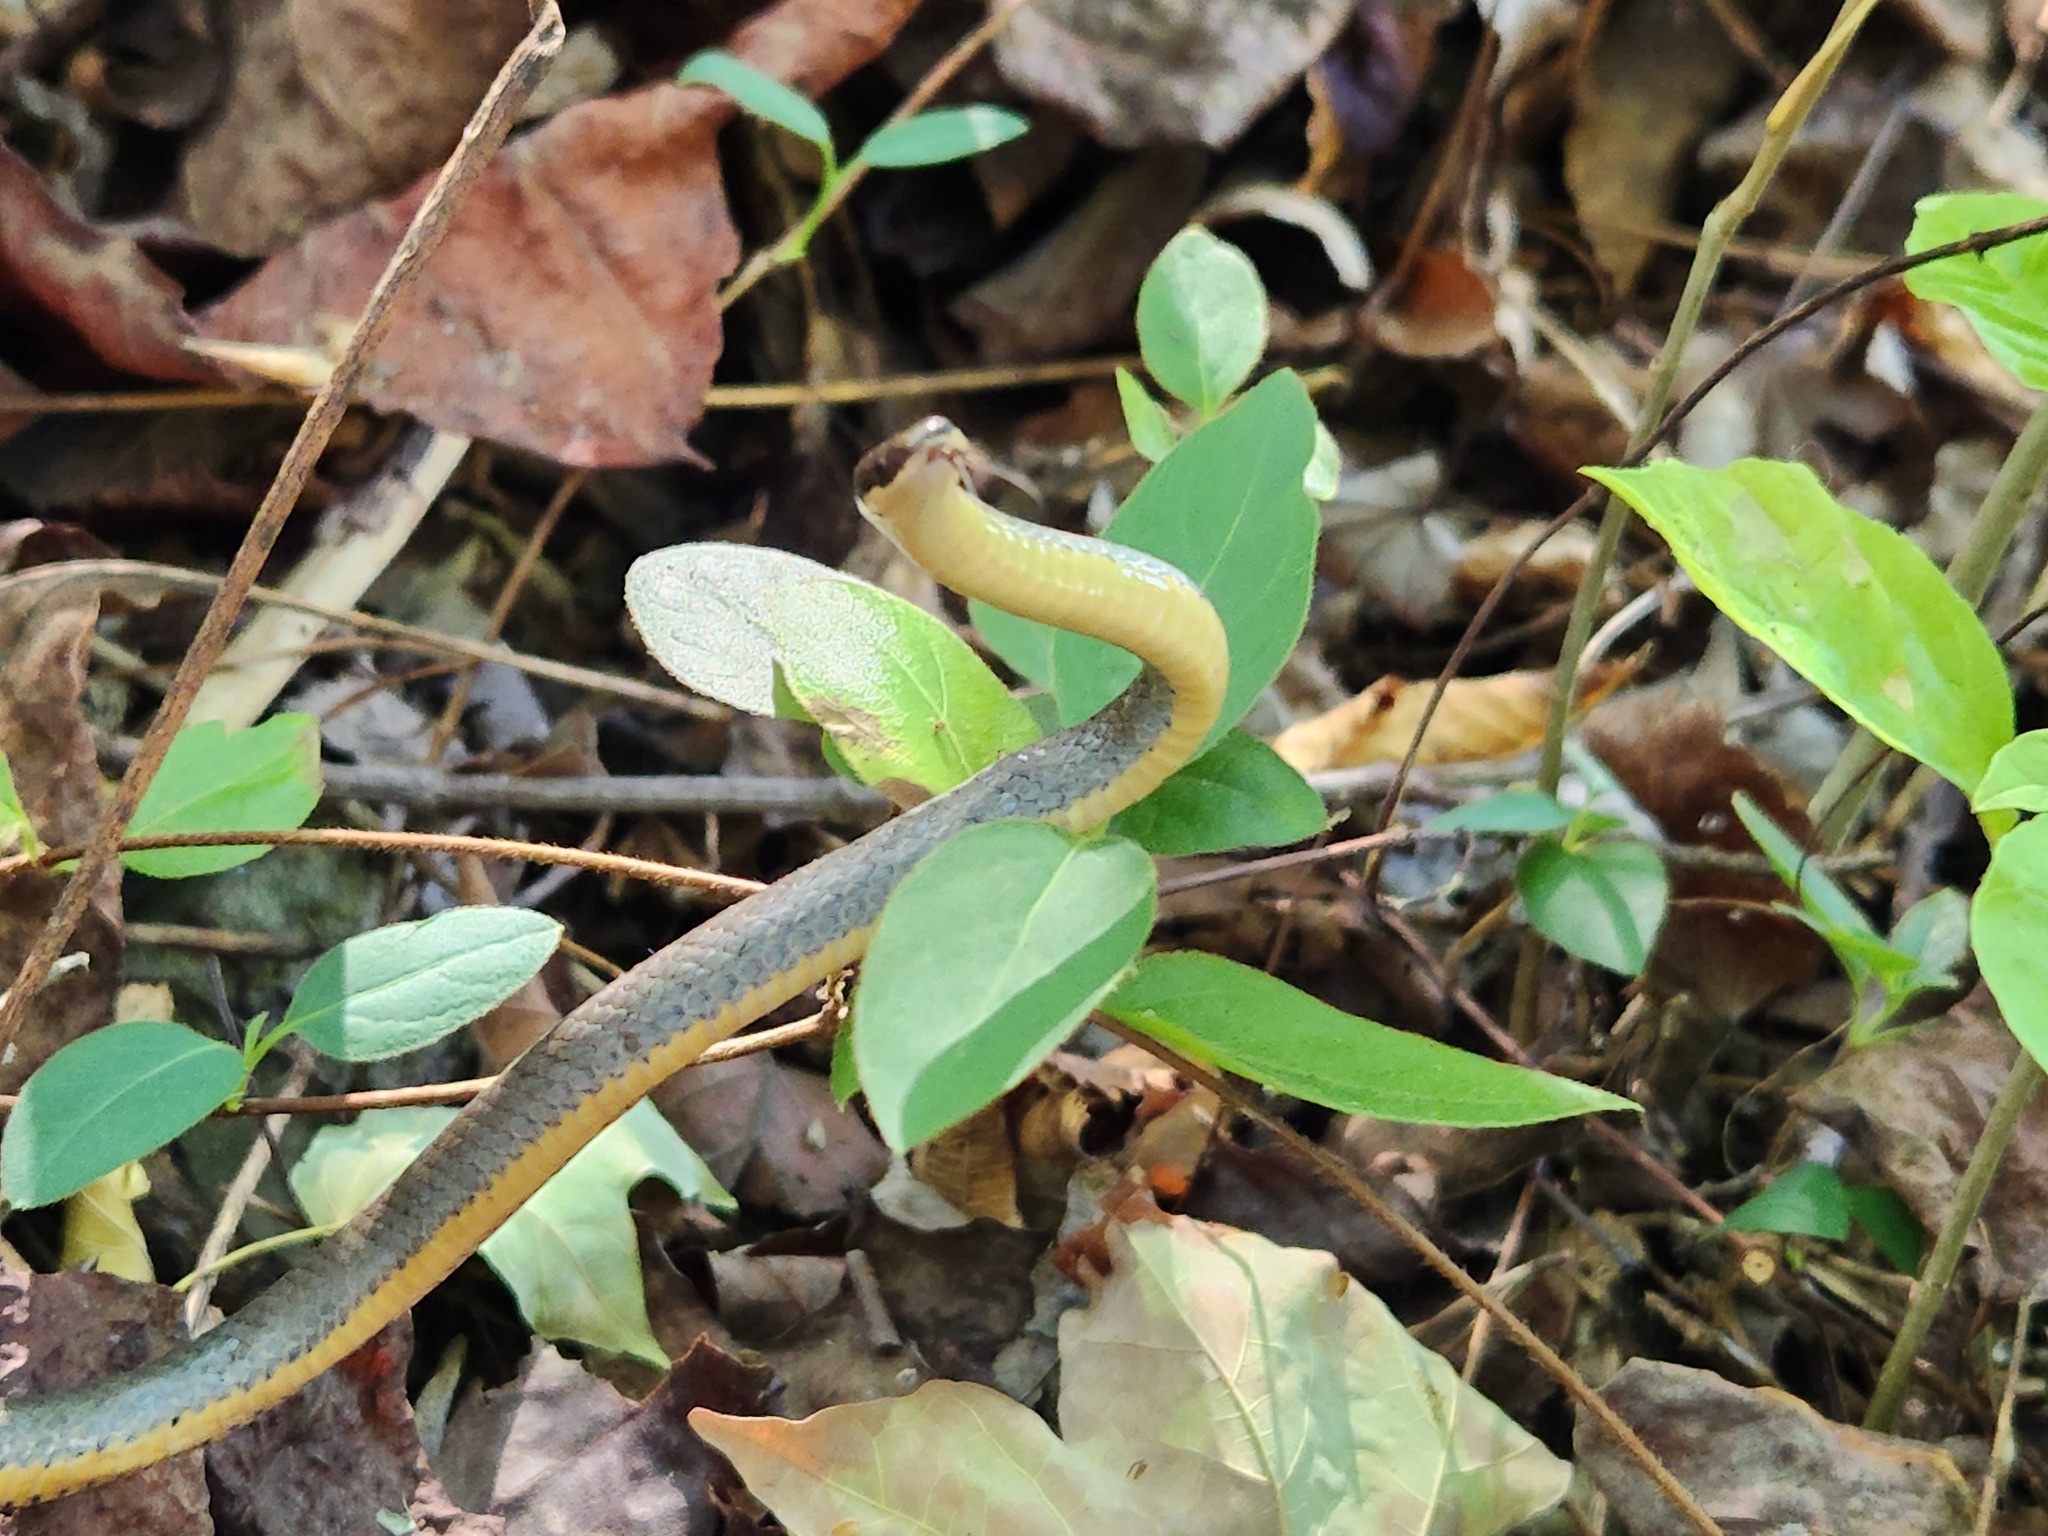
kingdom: Animalia
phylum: Chordata
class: Squamata
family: Colubridae
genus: Diadophis
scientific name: Diadophis punctatus
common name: Ringneck snake
